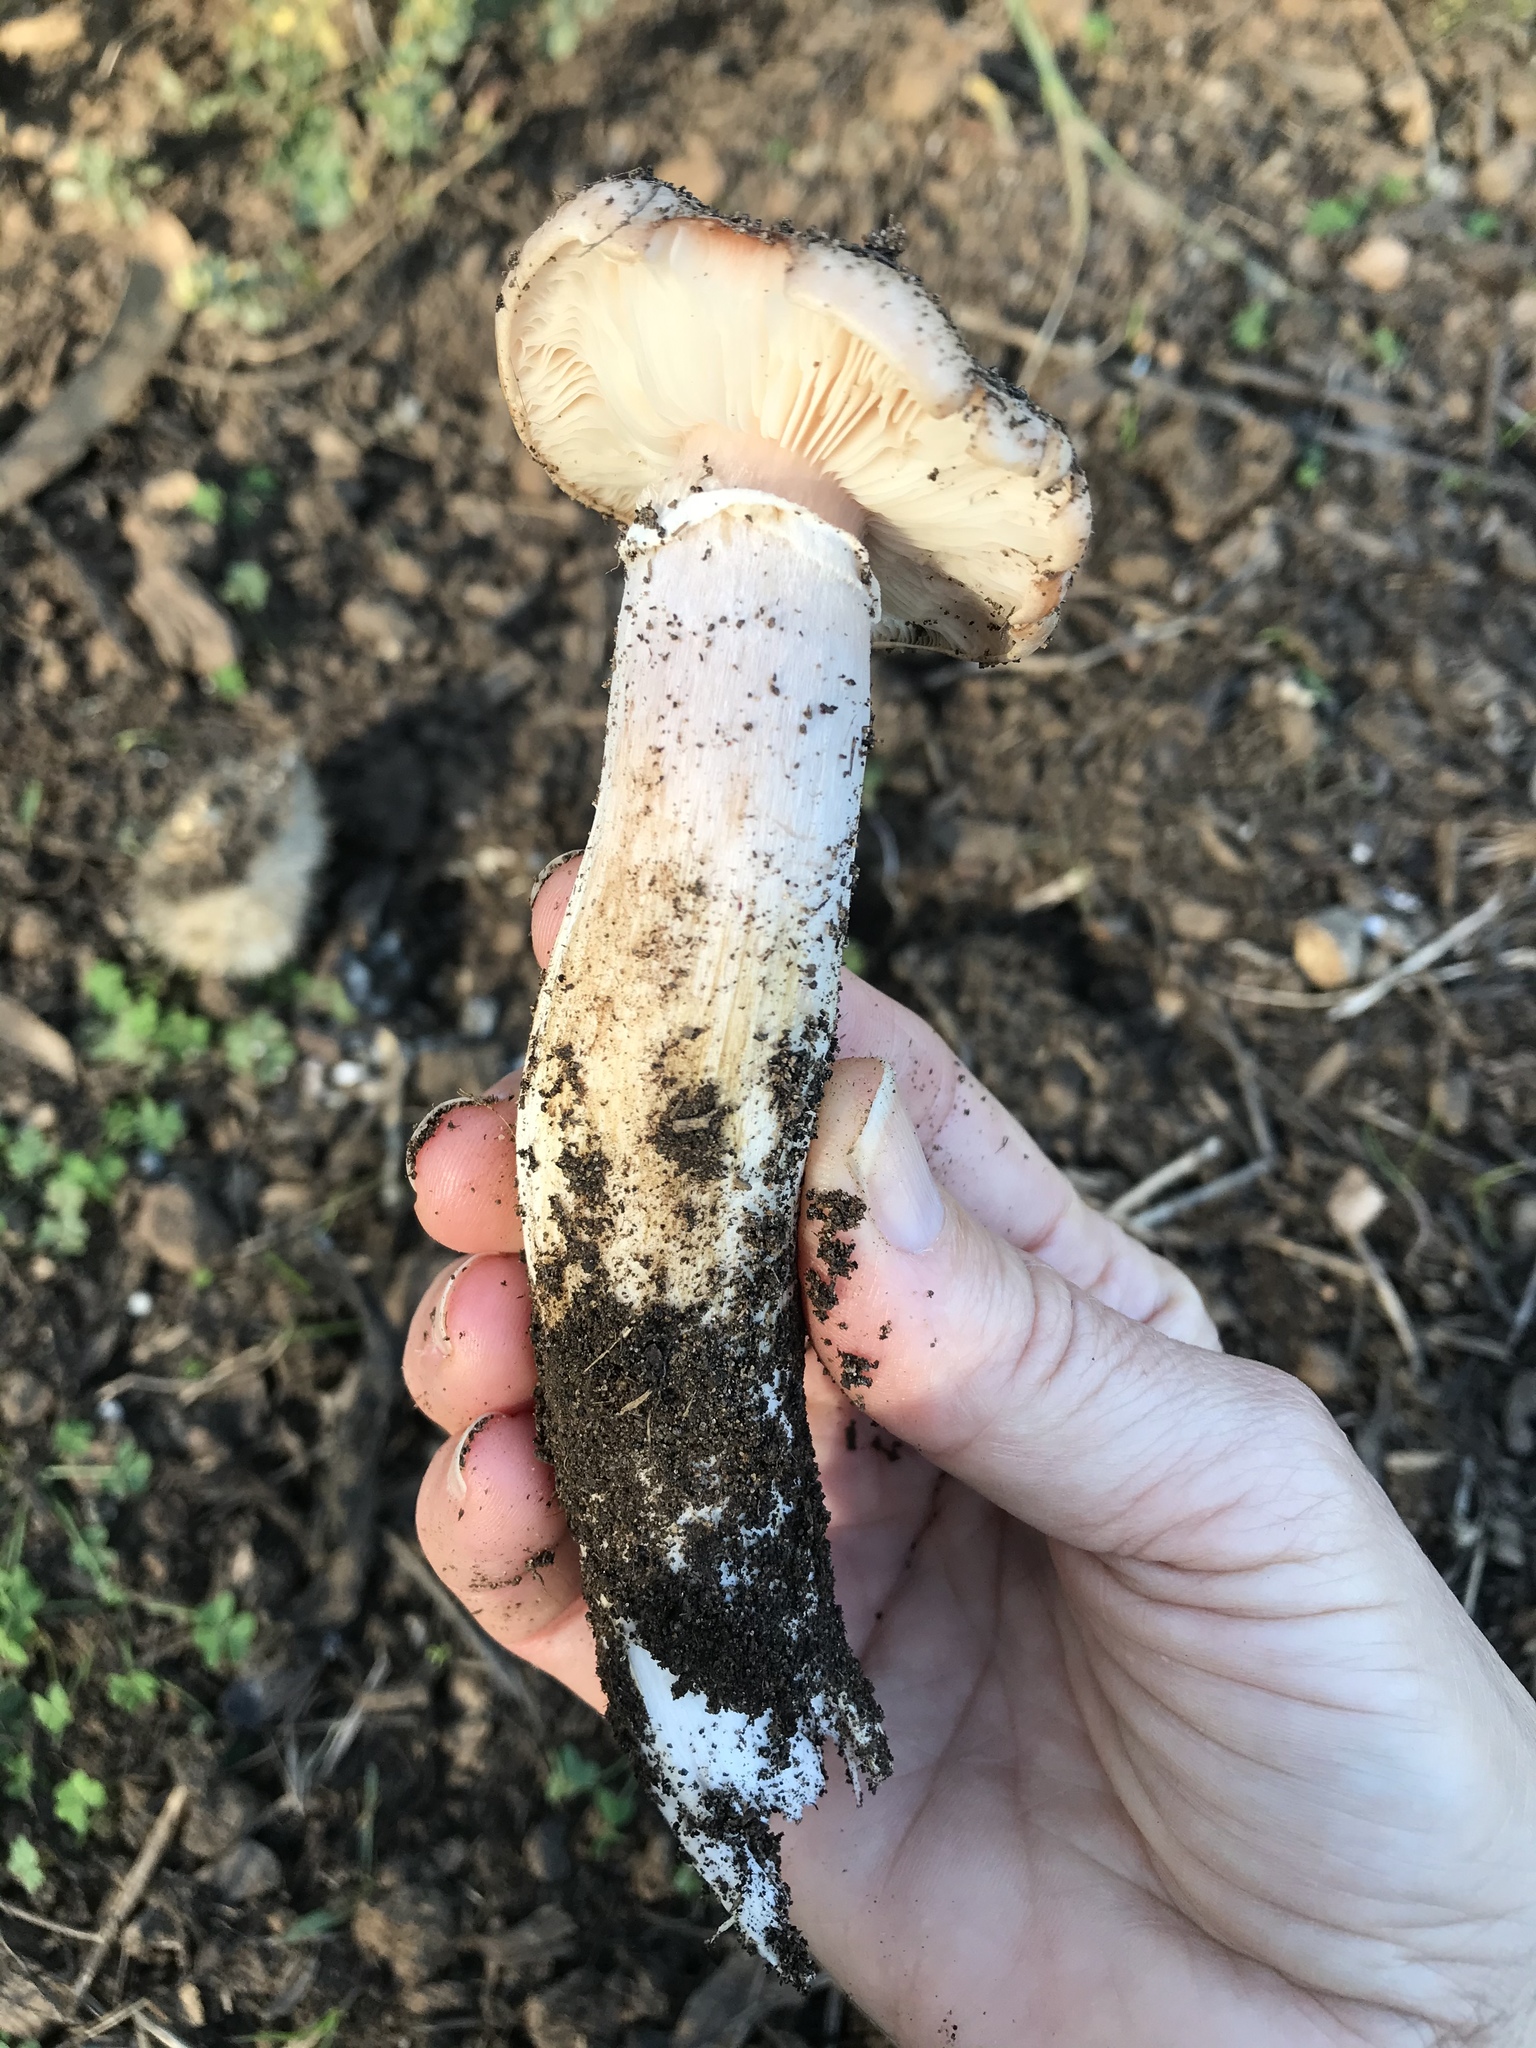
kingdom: Fungi
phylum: Basidiomycota
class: Agaricomycetes
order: Agaricales
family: Physalacriaceae
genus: Armillaria
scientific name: Armillaria mellea
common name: Honey fungus
